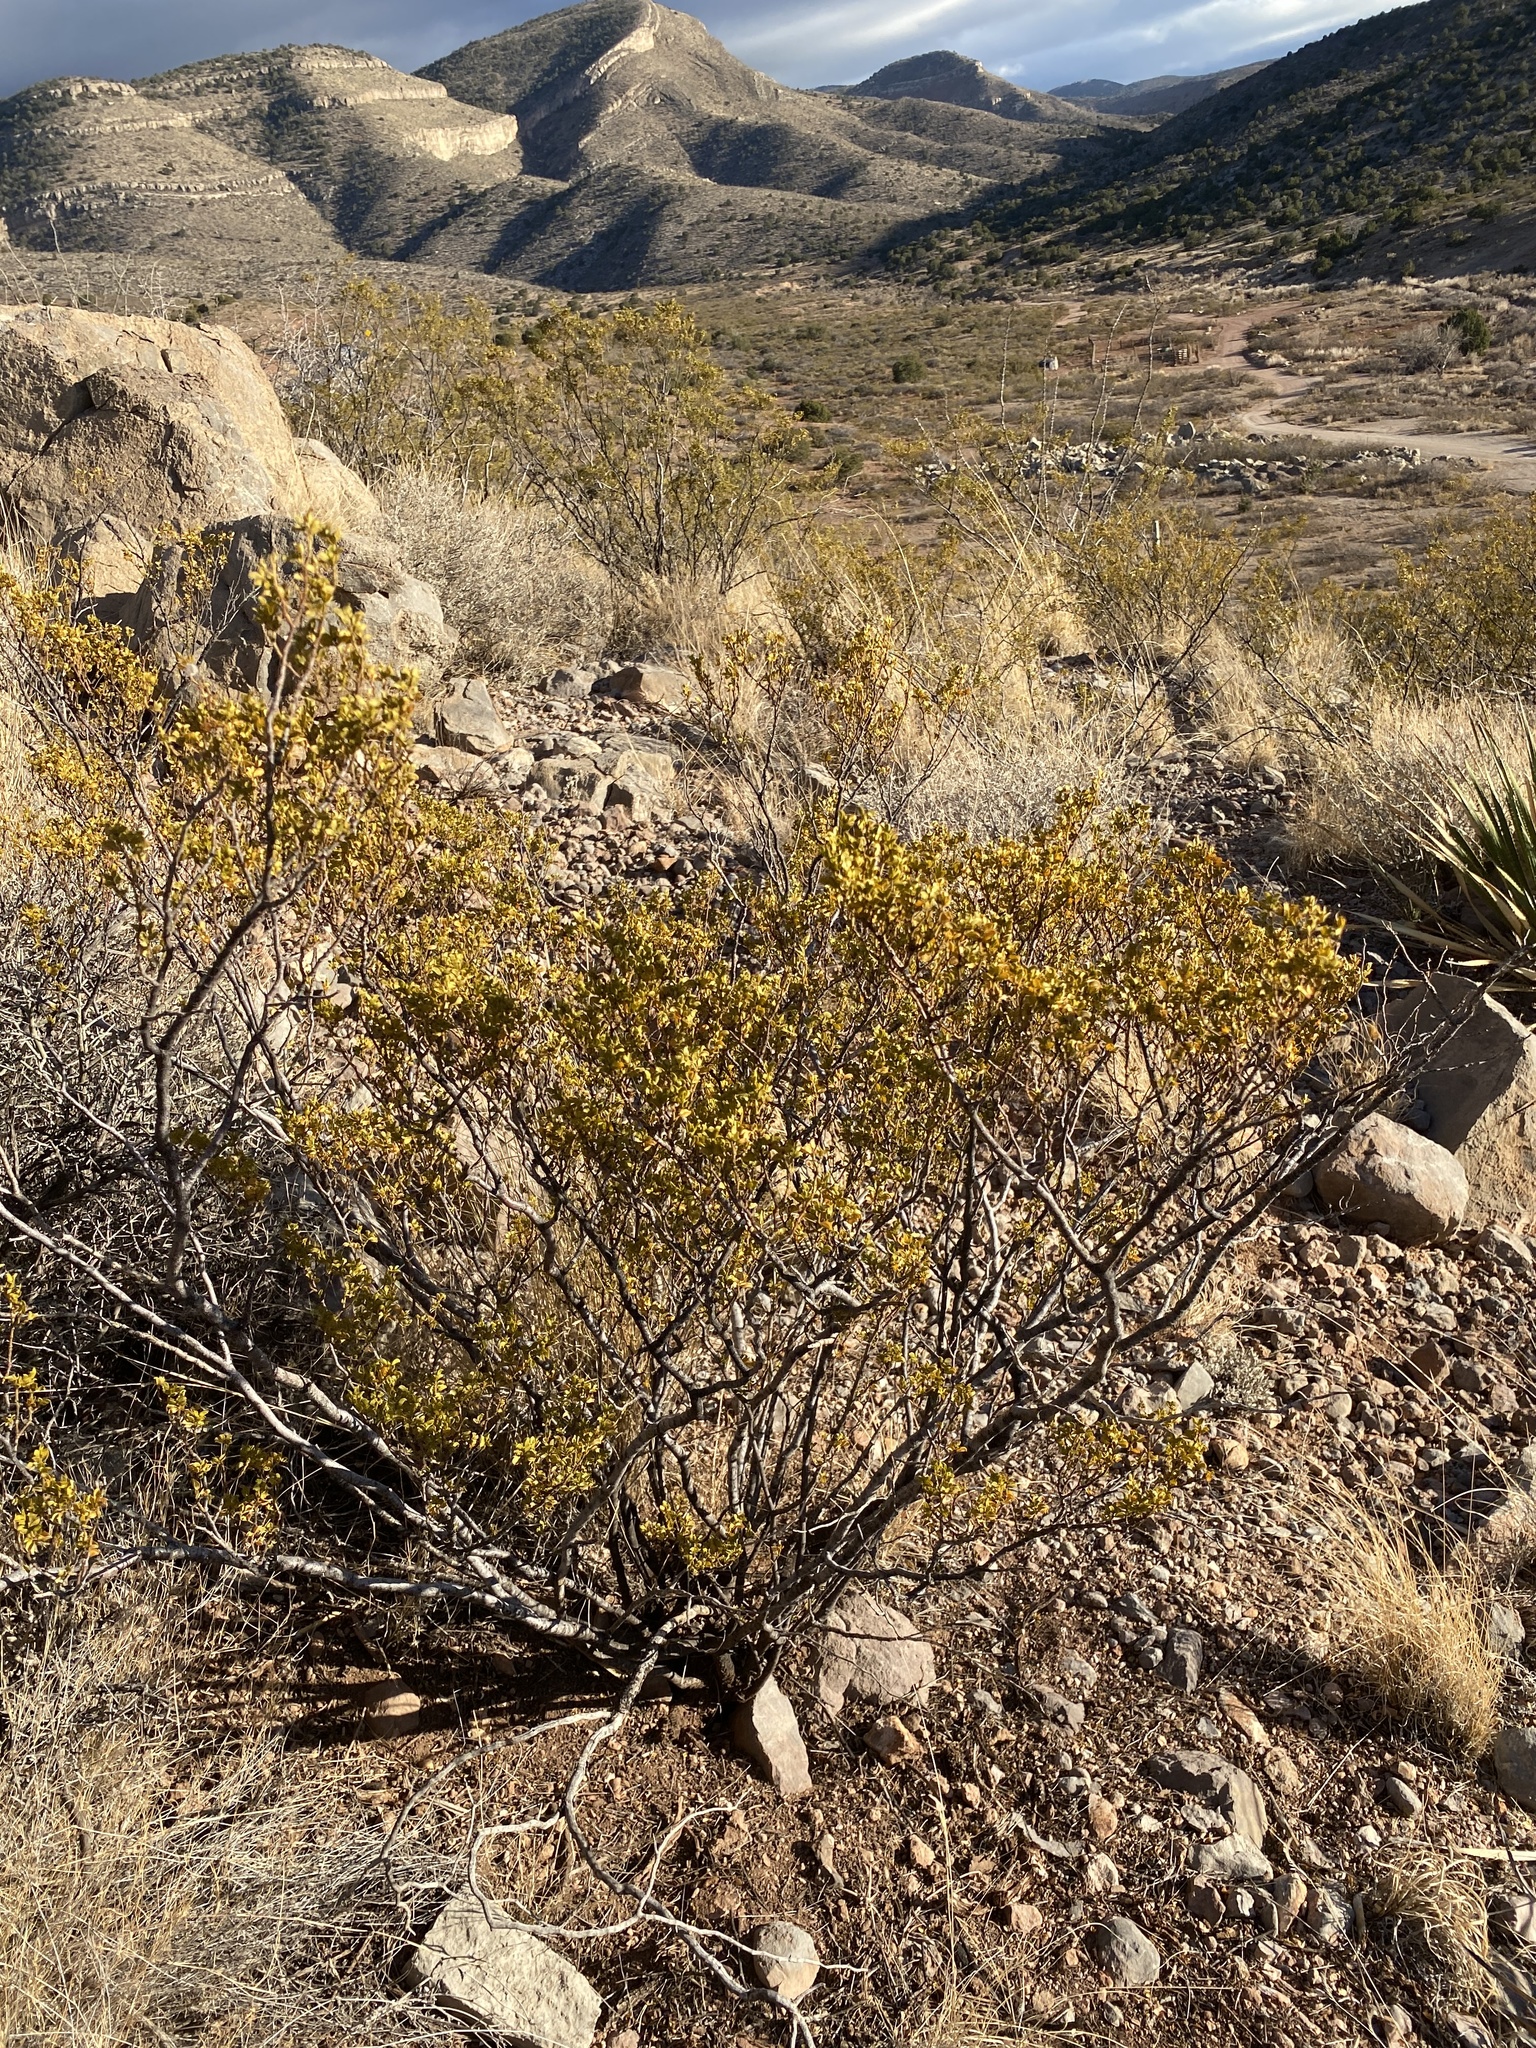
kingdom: Plantae
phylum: Tracheophyta
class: Magnoliopsida
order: Zygophyllales
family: Zygophyllaceae
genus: Larrea
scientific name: Larrea tridentata
